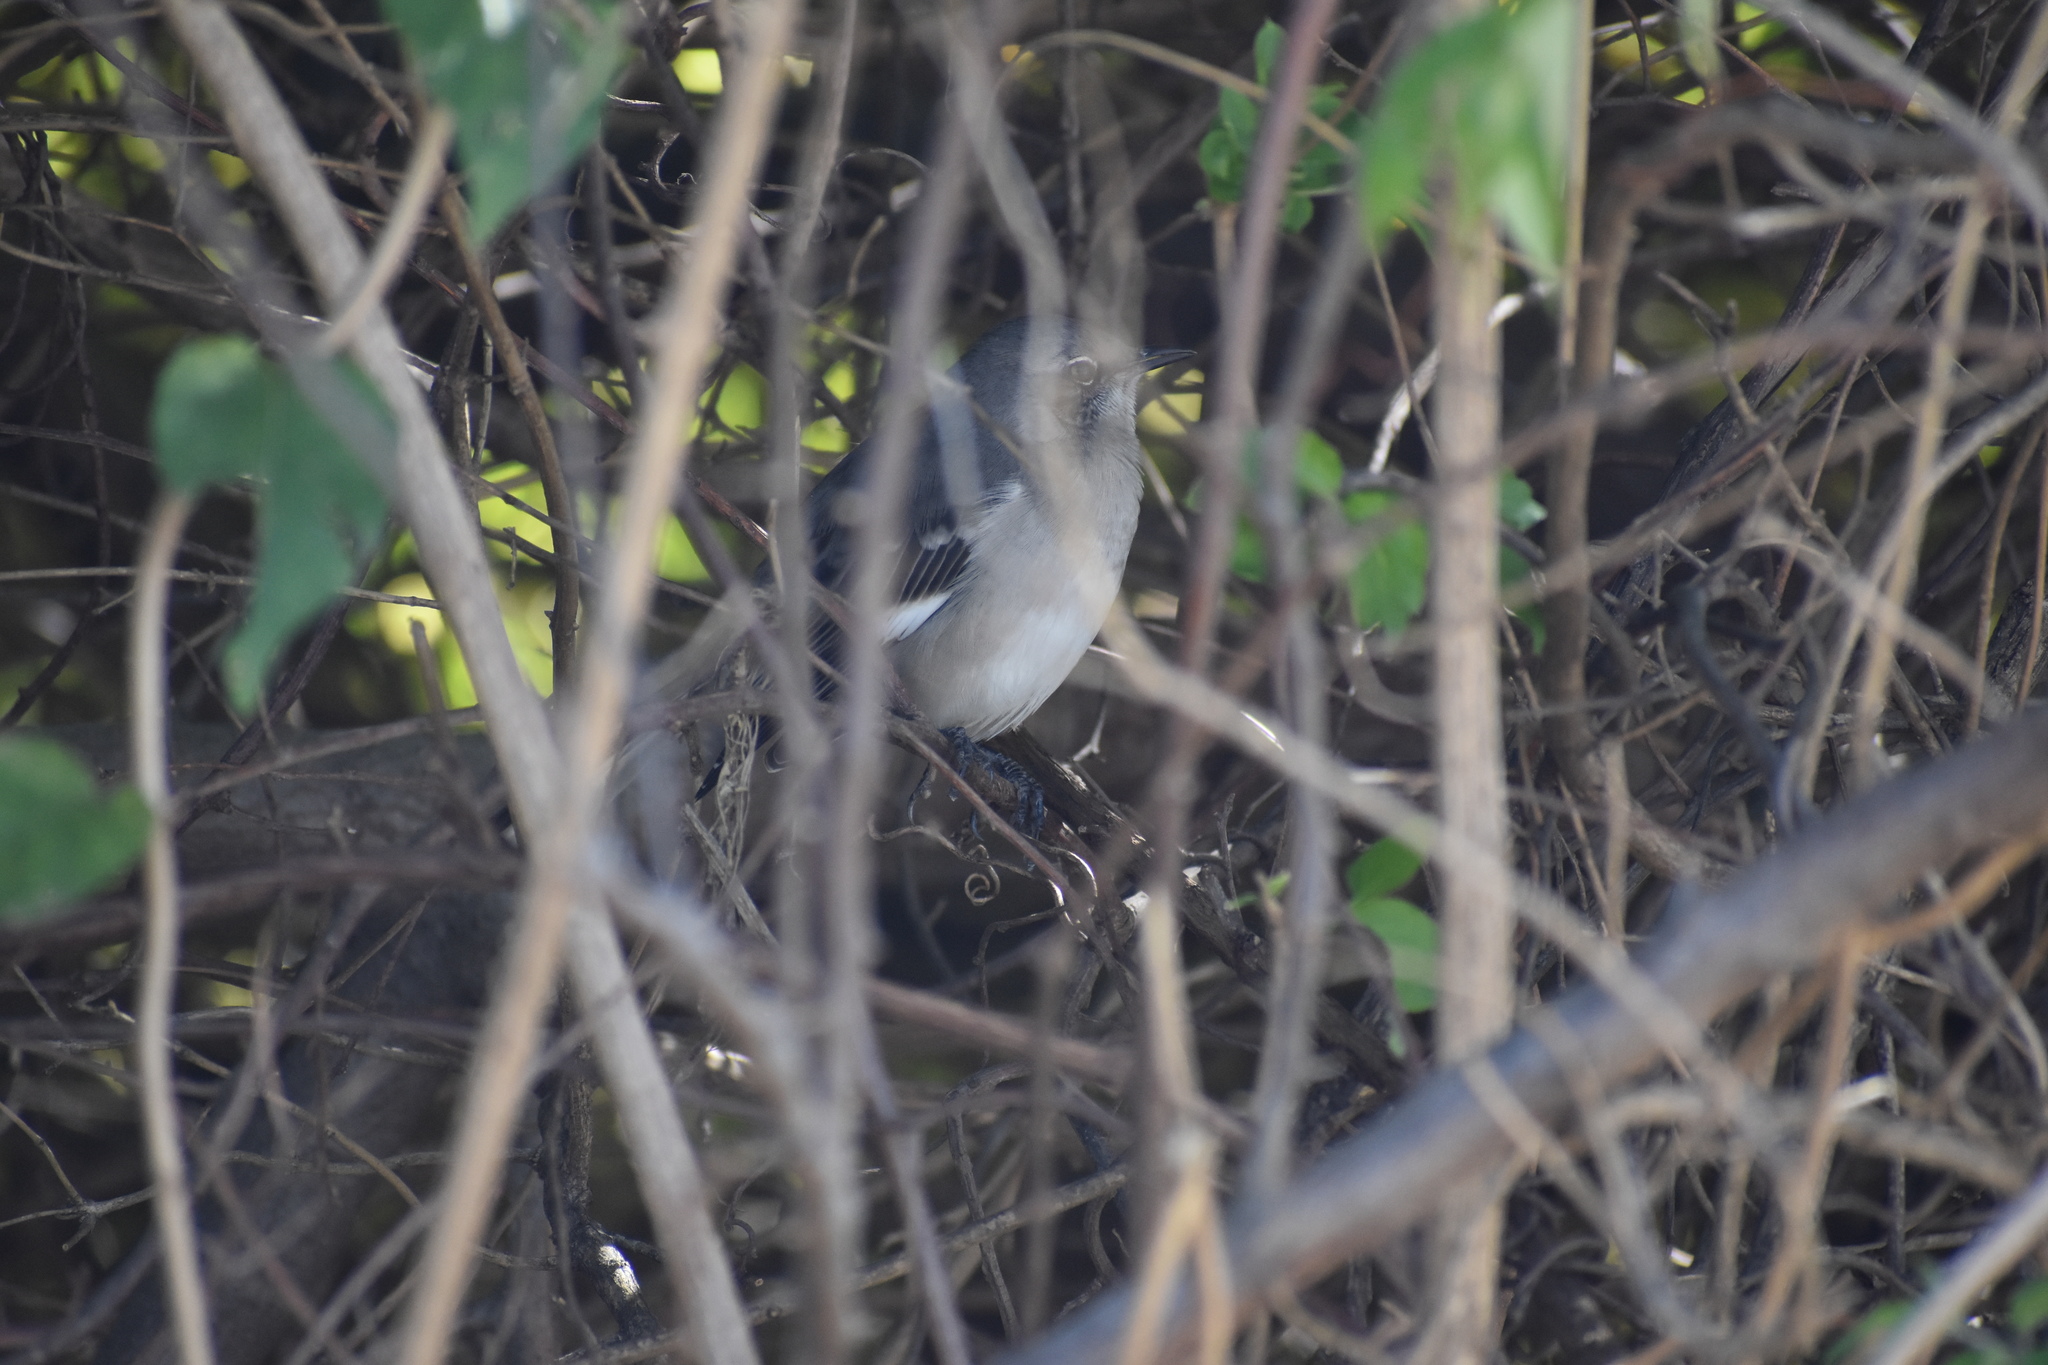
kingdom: Animalia
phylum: Chordata
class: Aves
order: Passeriformes
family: Mimidae
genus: Mimus
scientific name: Mimus polyglottos
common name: Northern mockingbird
